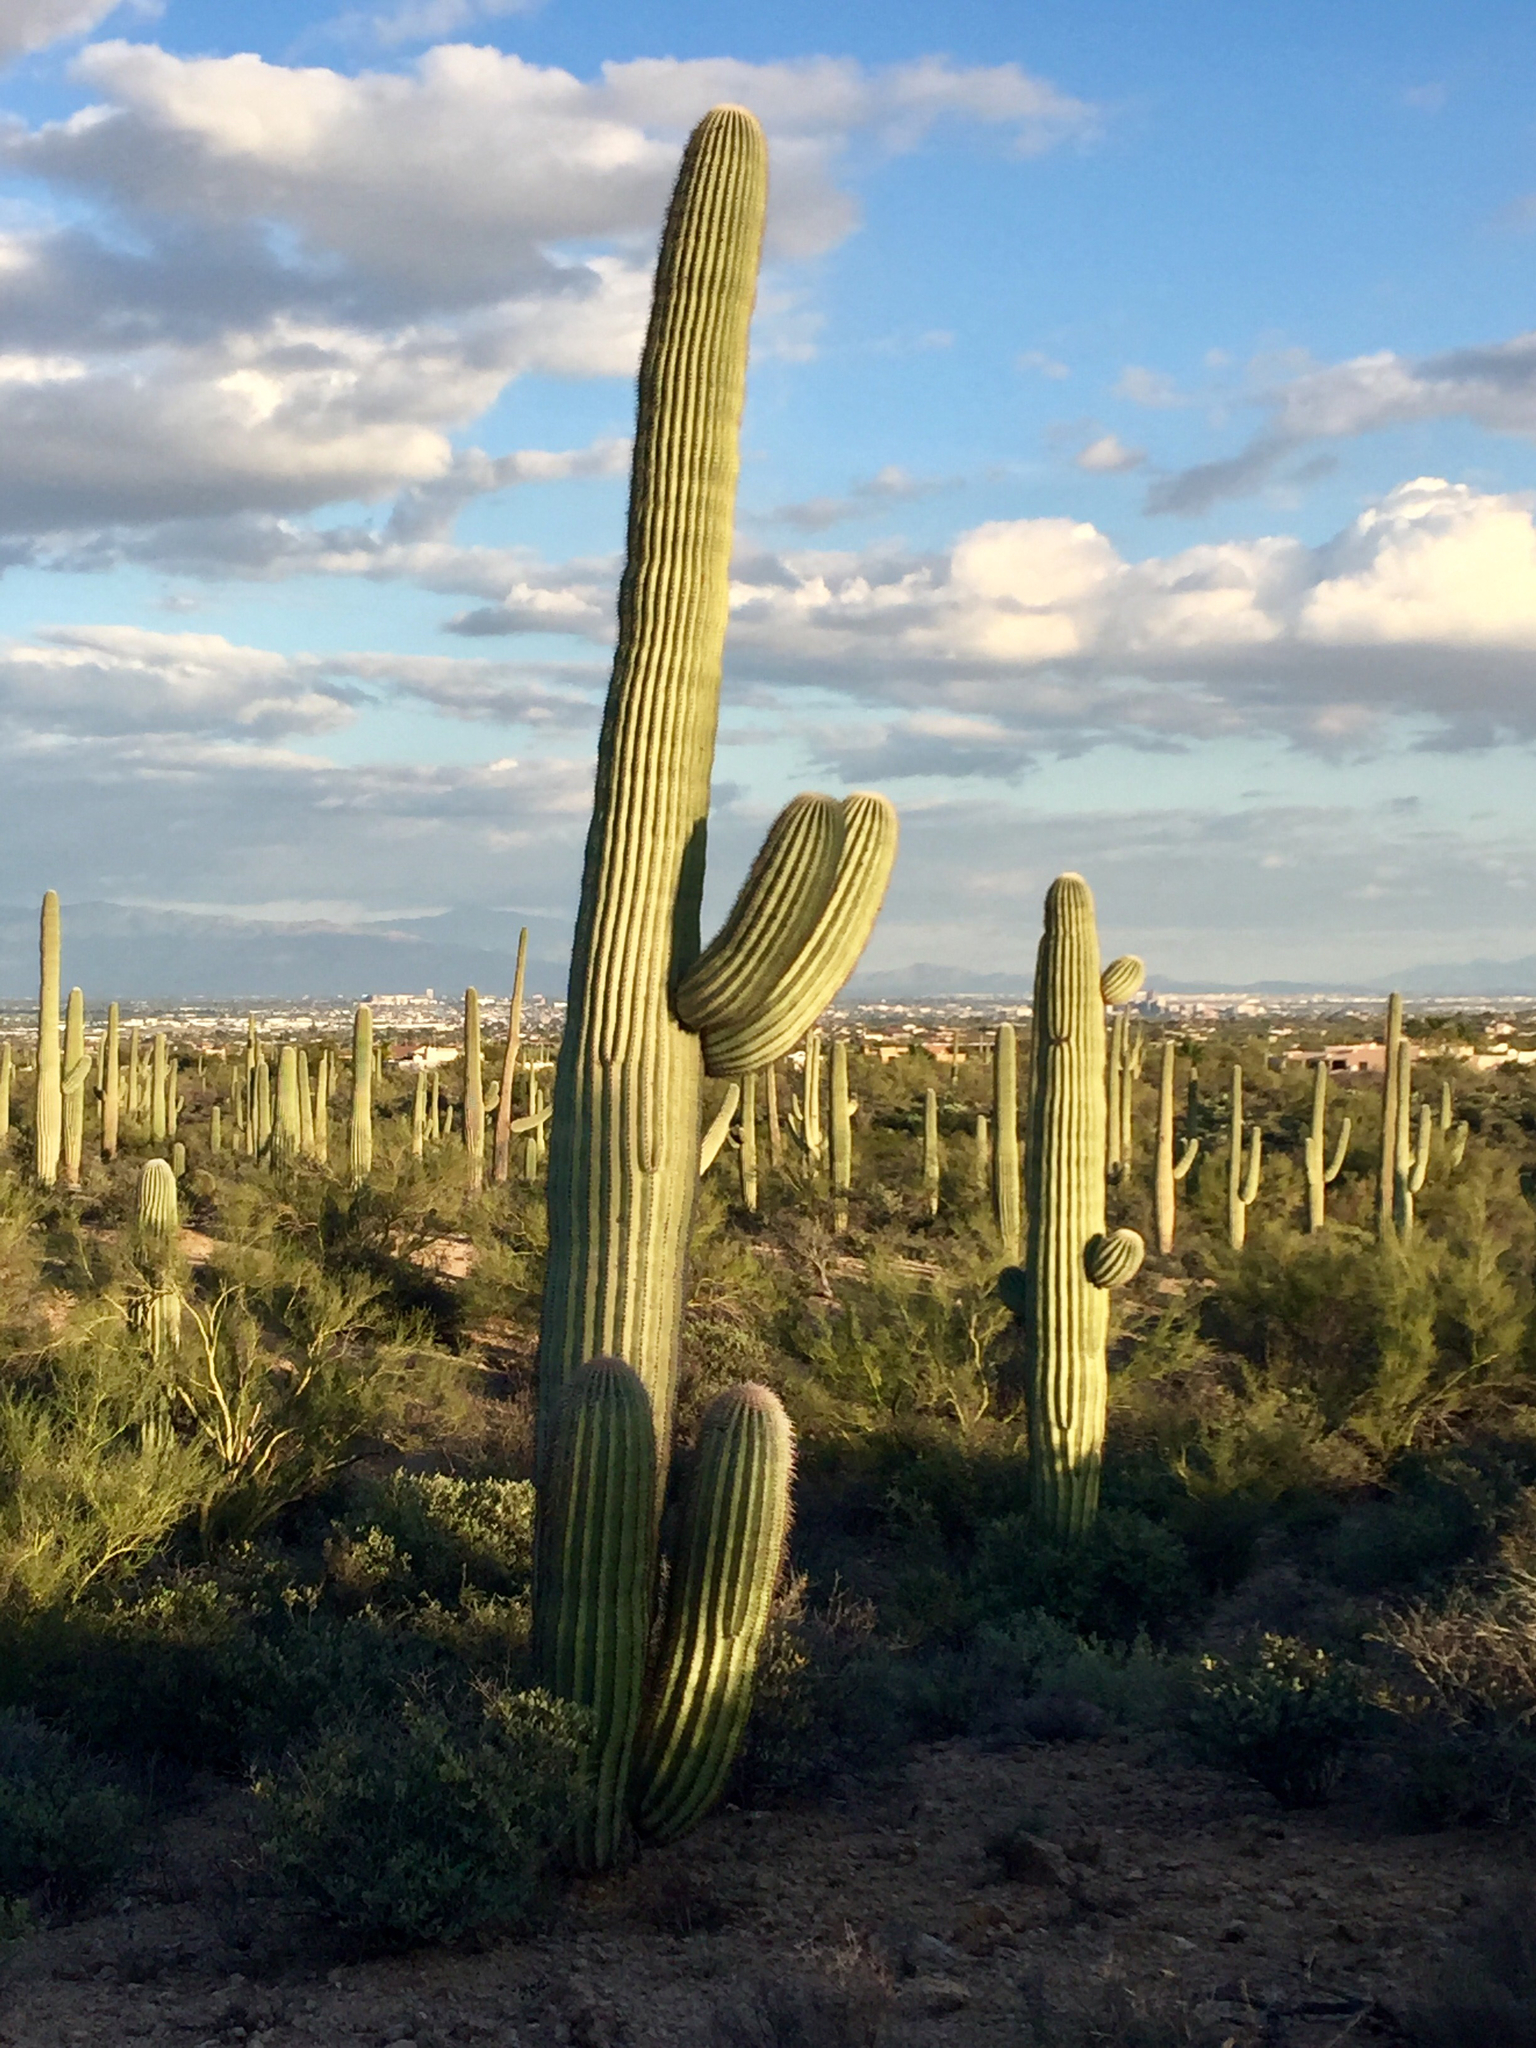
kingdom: Plantae
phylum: Tracheophyta
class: Magnoliopsida
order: Caryophyllales
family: Cactaceae
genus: Carnegiea
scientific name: Carnegiea gigantea
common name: Saguaro
